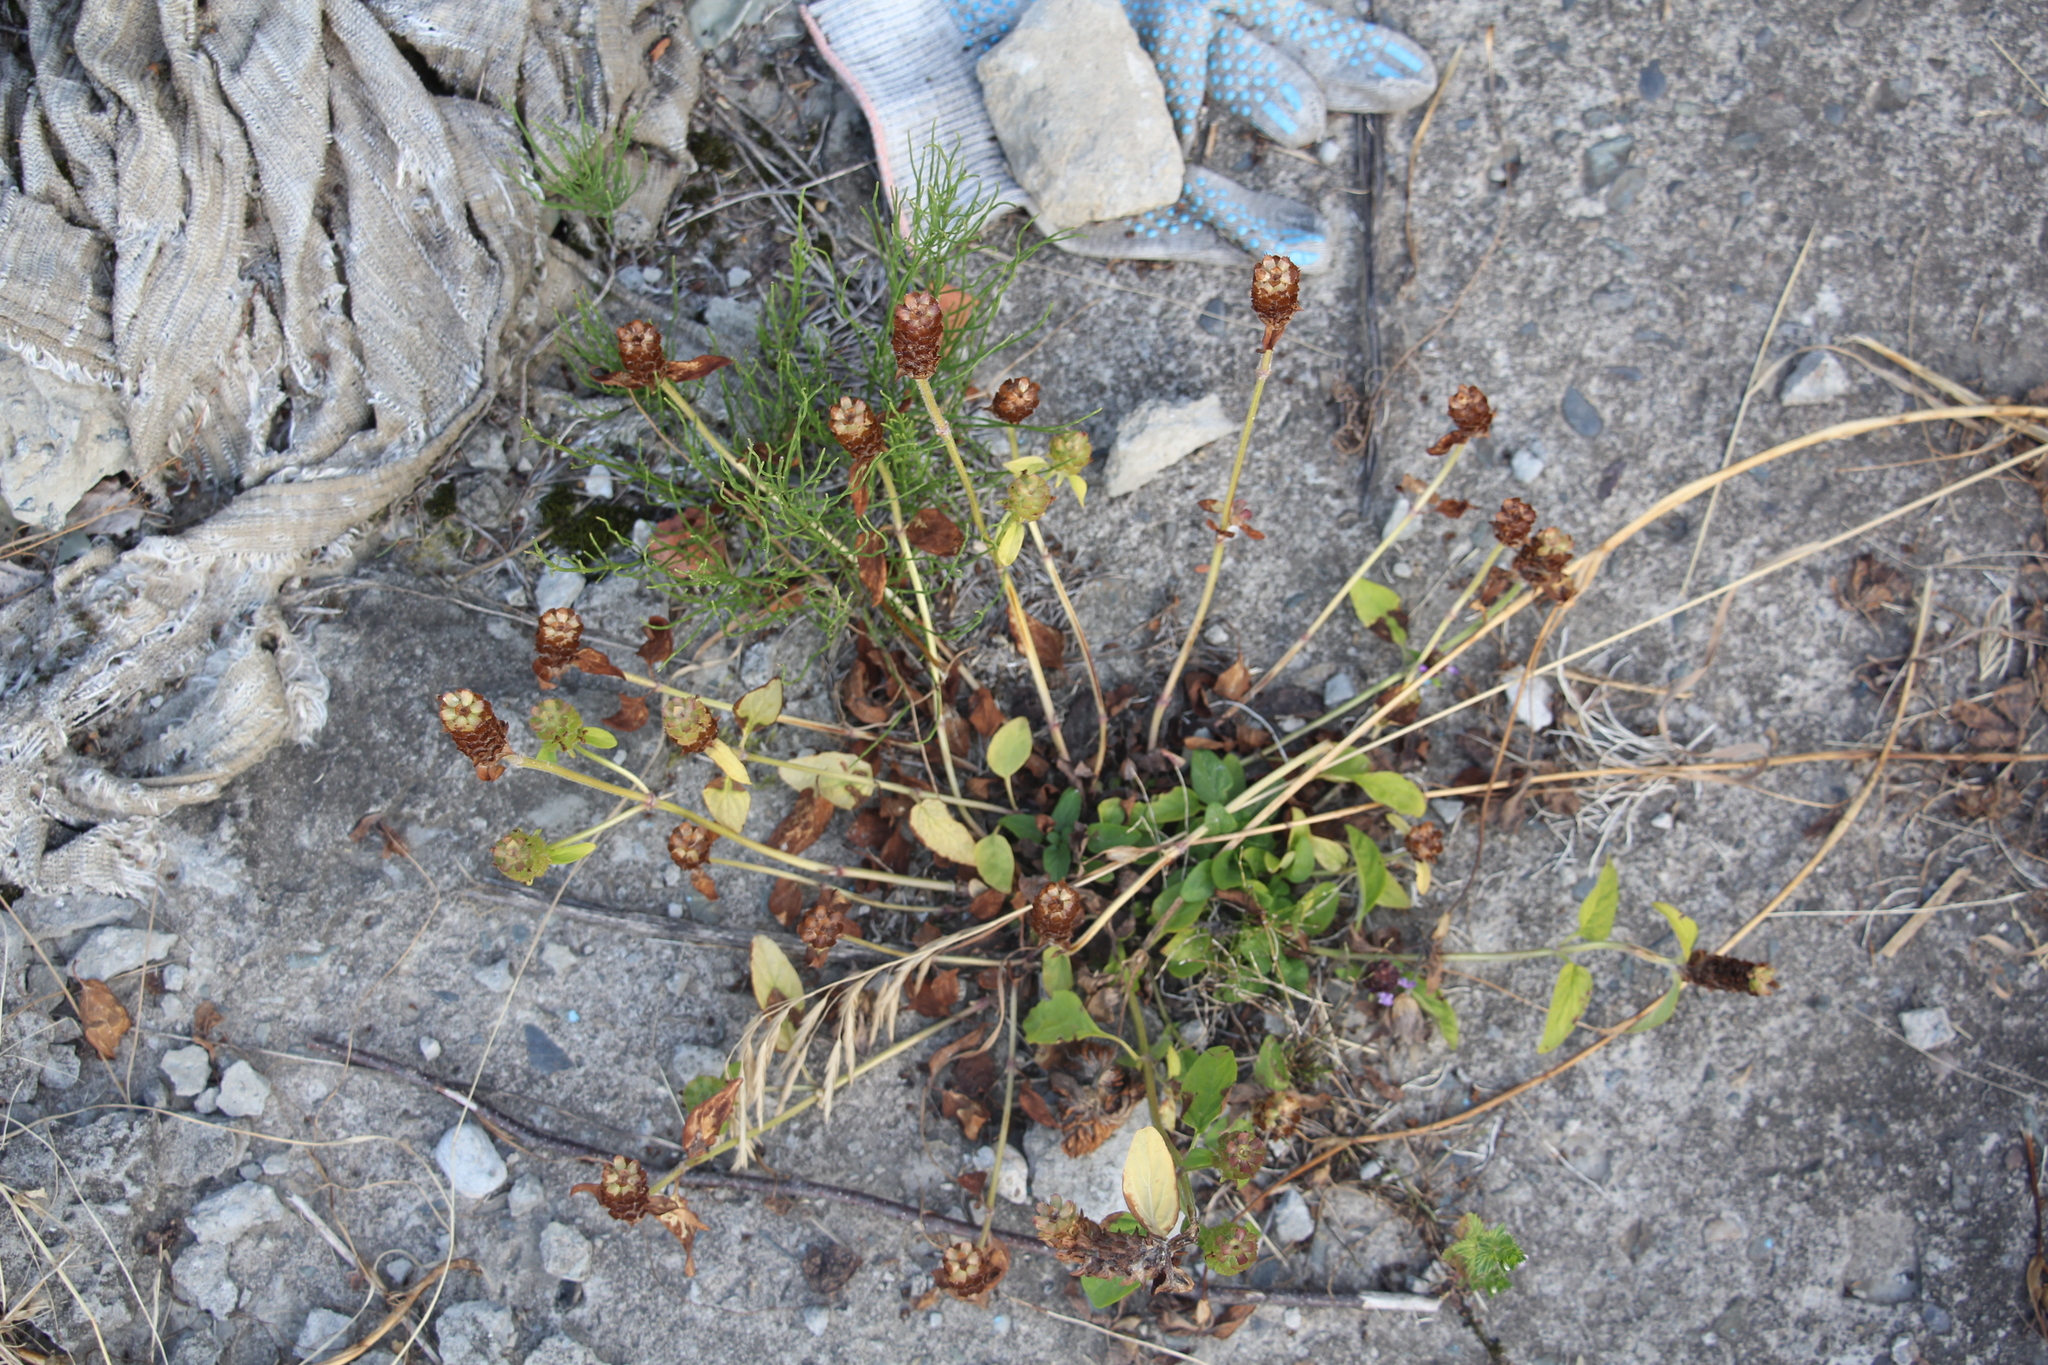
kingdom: Plantae
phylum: Tracheophyta
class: Magnoliopsida
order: Lamiales
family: Lamiaceae
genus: Prunella
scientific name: Prunella vulgaris
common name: Heal-all
